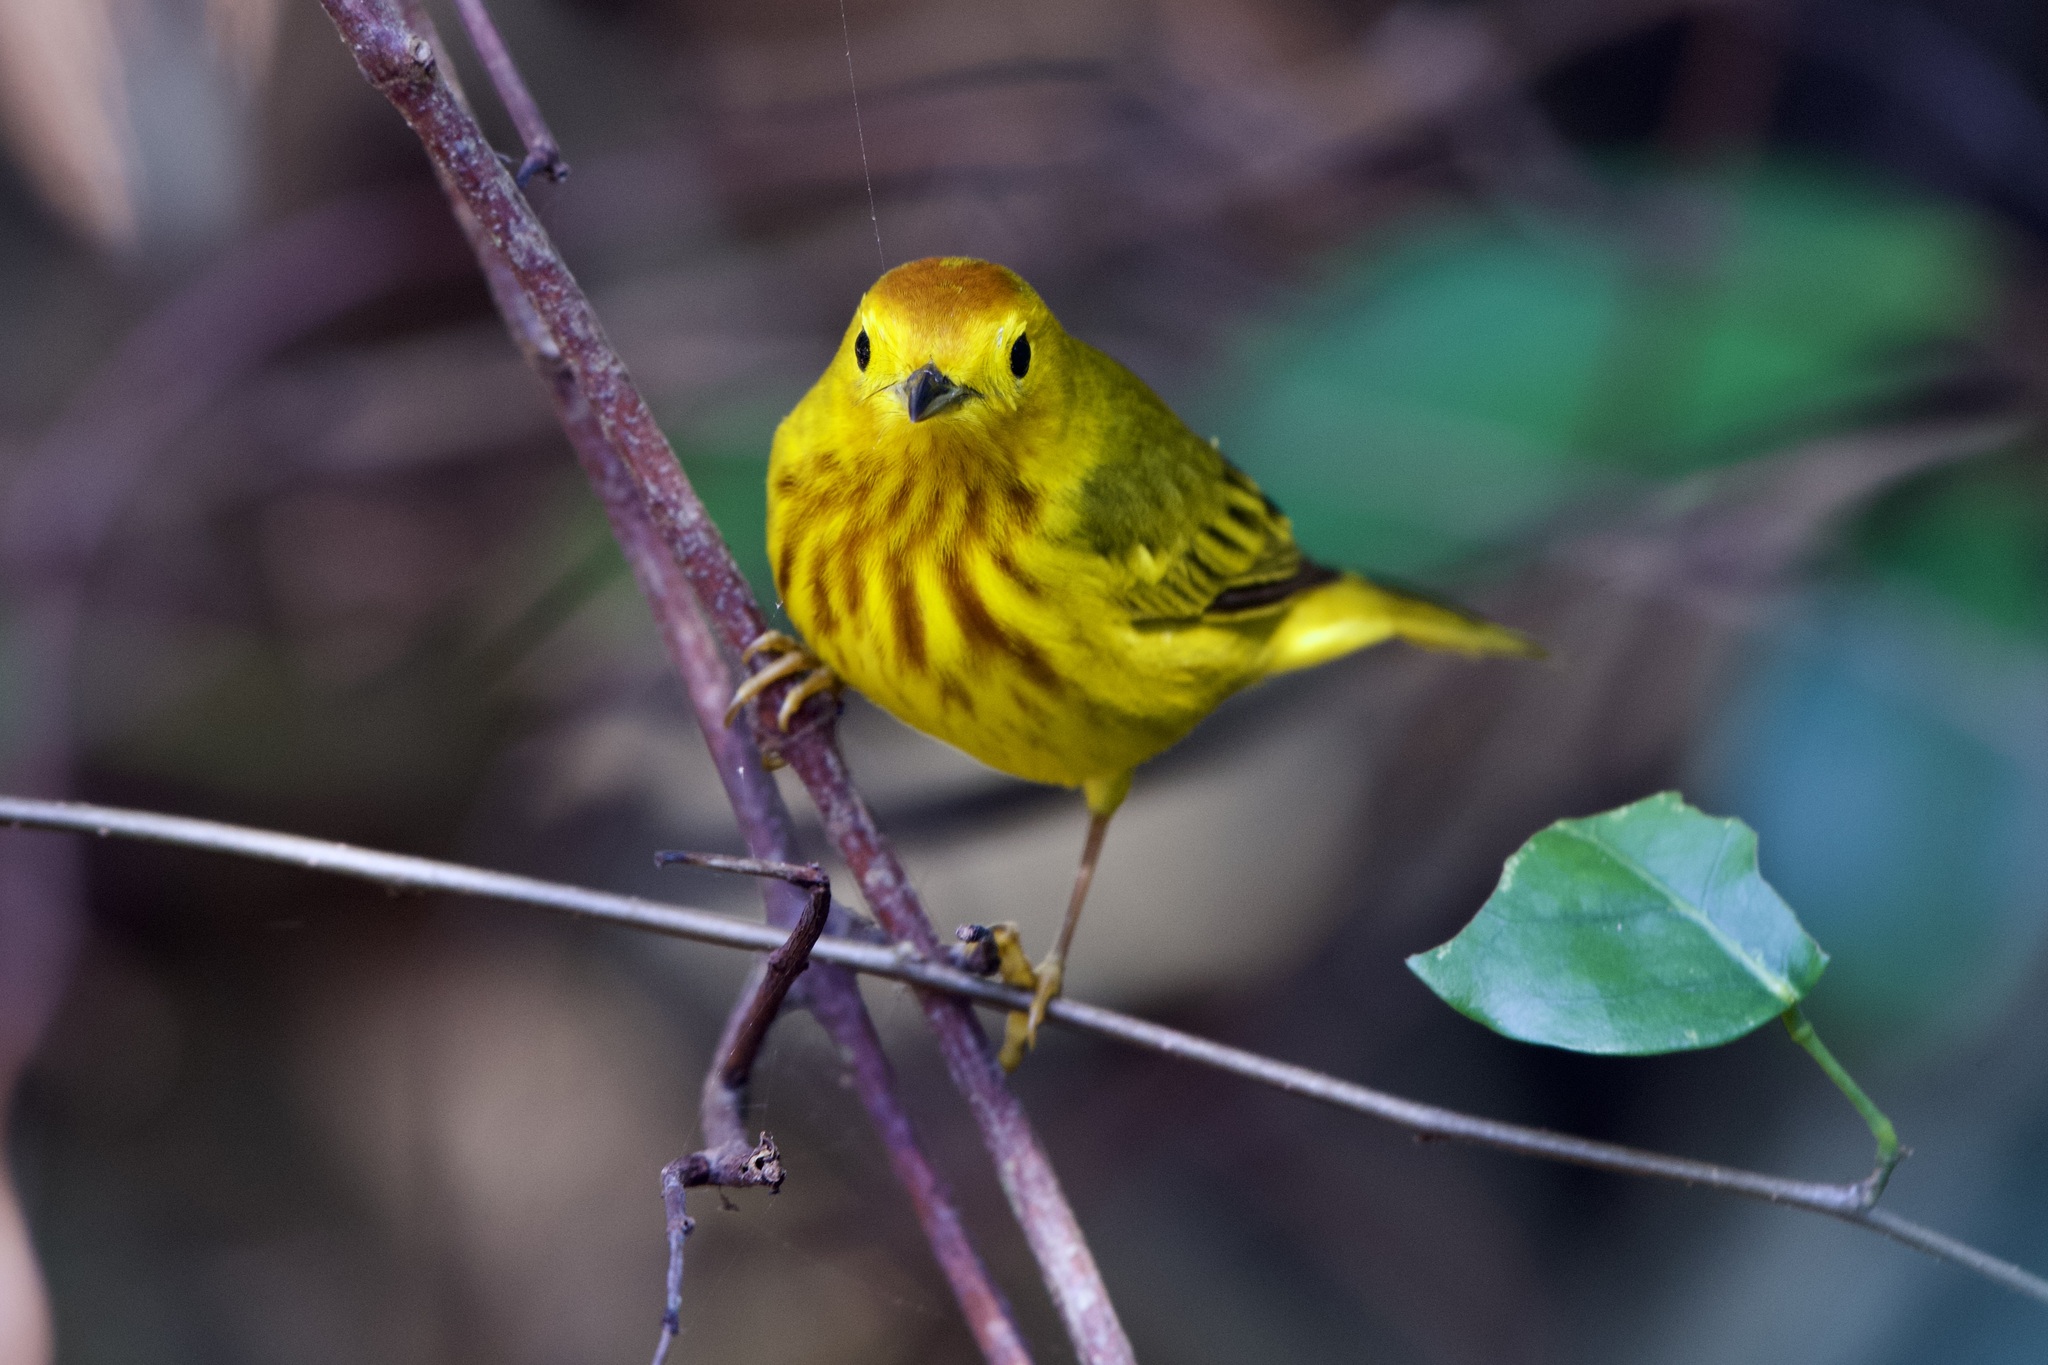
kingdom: Animalia
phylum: Chordata
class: Aves
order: Passeriformes
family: Parulidae
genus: Setophaga
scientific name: Setophaga petechia
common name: Yellow warbler
